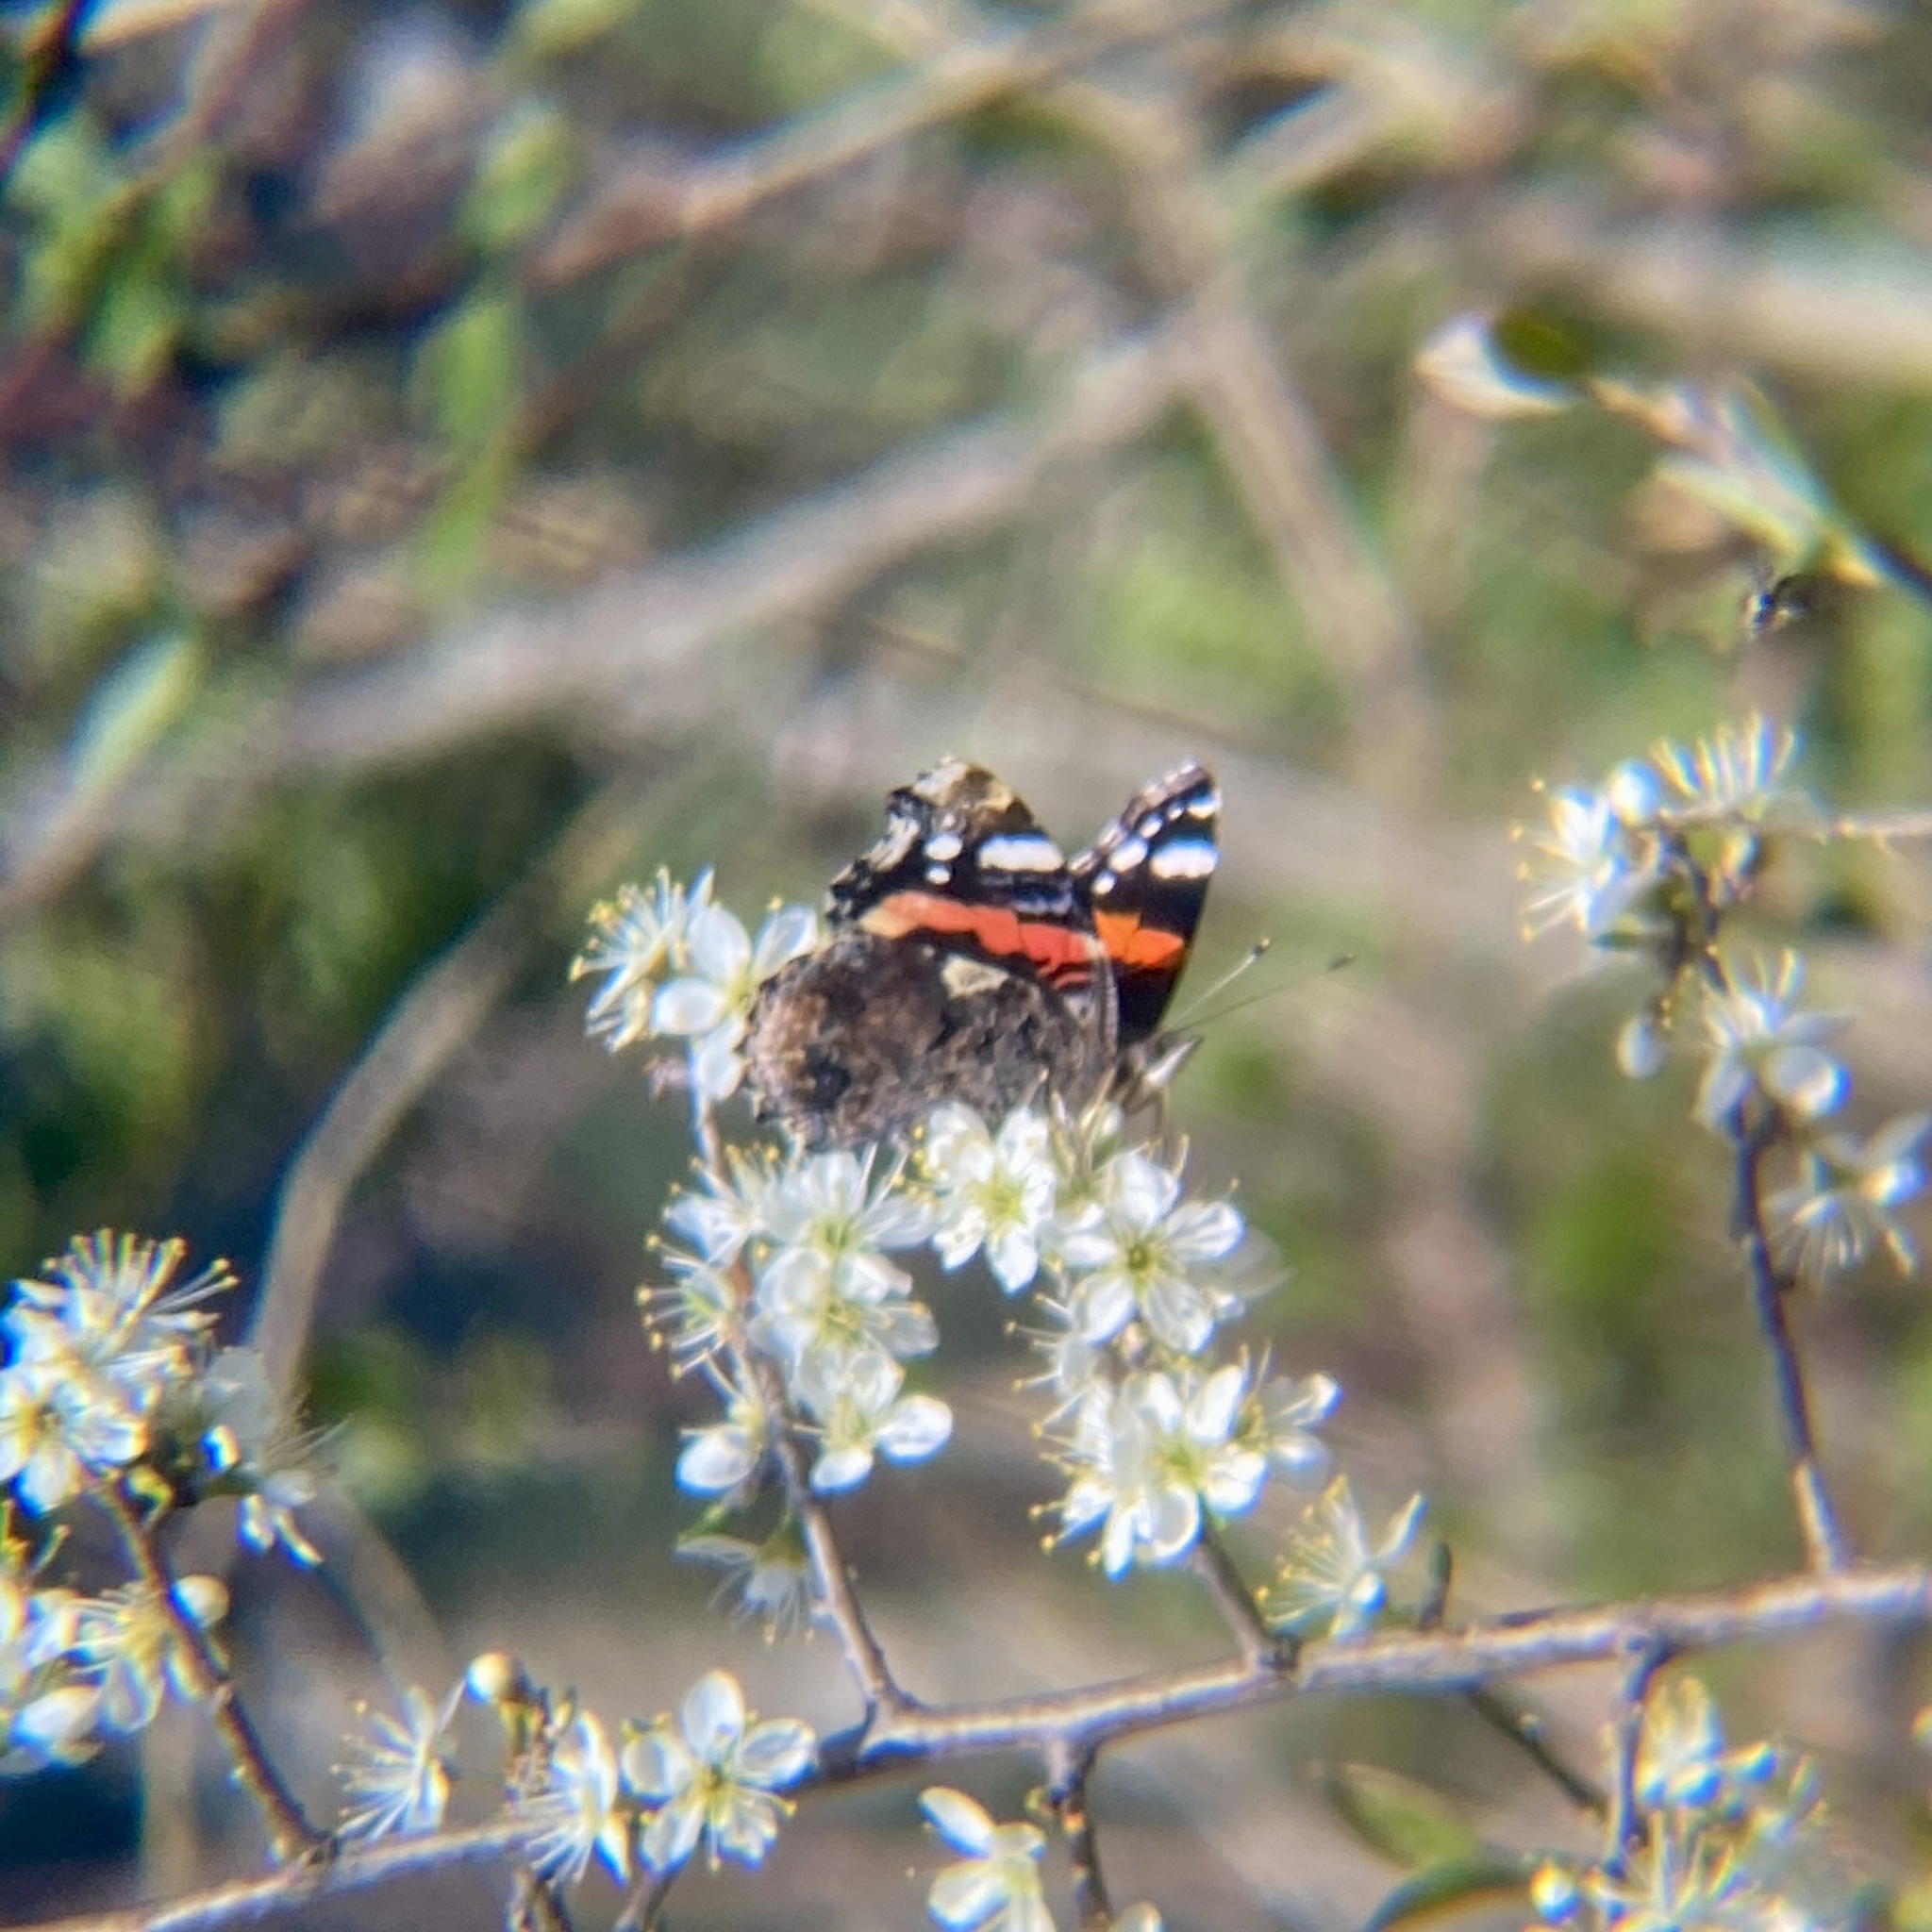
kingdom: Animalia
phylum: Arthropoda
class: Insecta
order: Lepidoptera
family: Nymphalidae
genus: Vanessa
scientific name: Vanessa atalanta
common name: Red admiral
